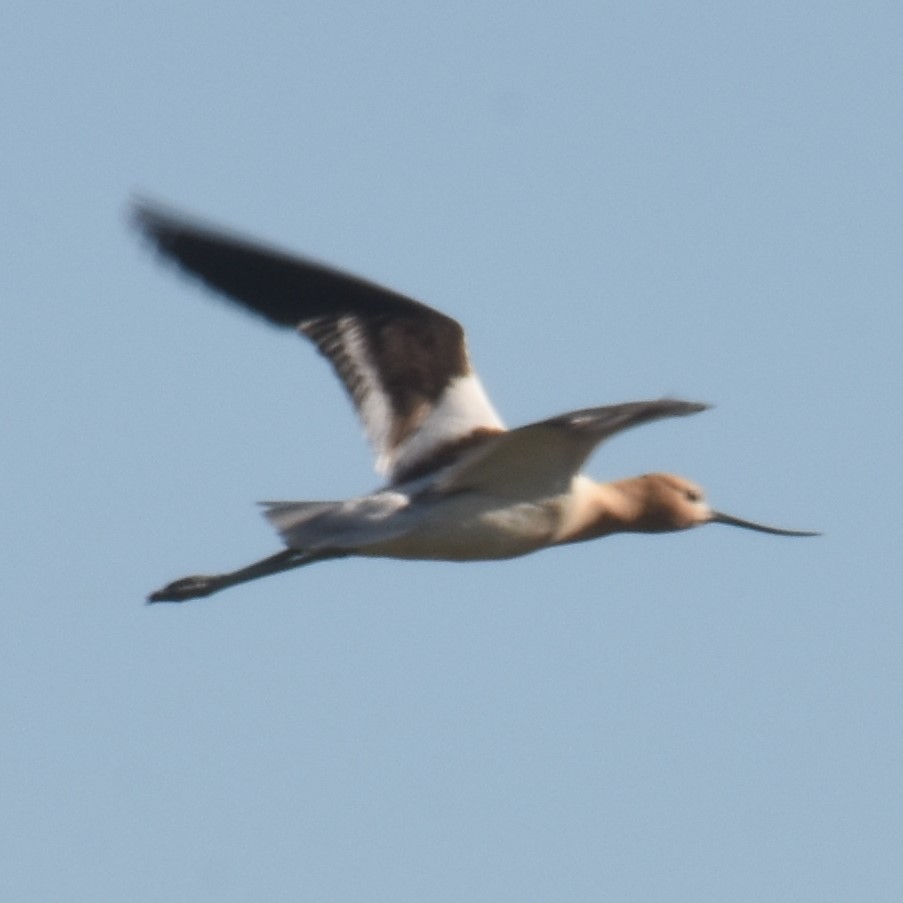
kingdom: Animalia
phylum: Chordata
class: Aves
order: Charadriiformes
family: Recurvirostridae
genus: Recurvirostra
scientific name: Recurvirostra americana
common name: American avocet
